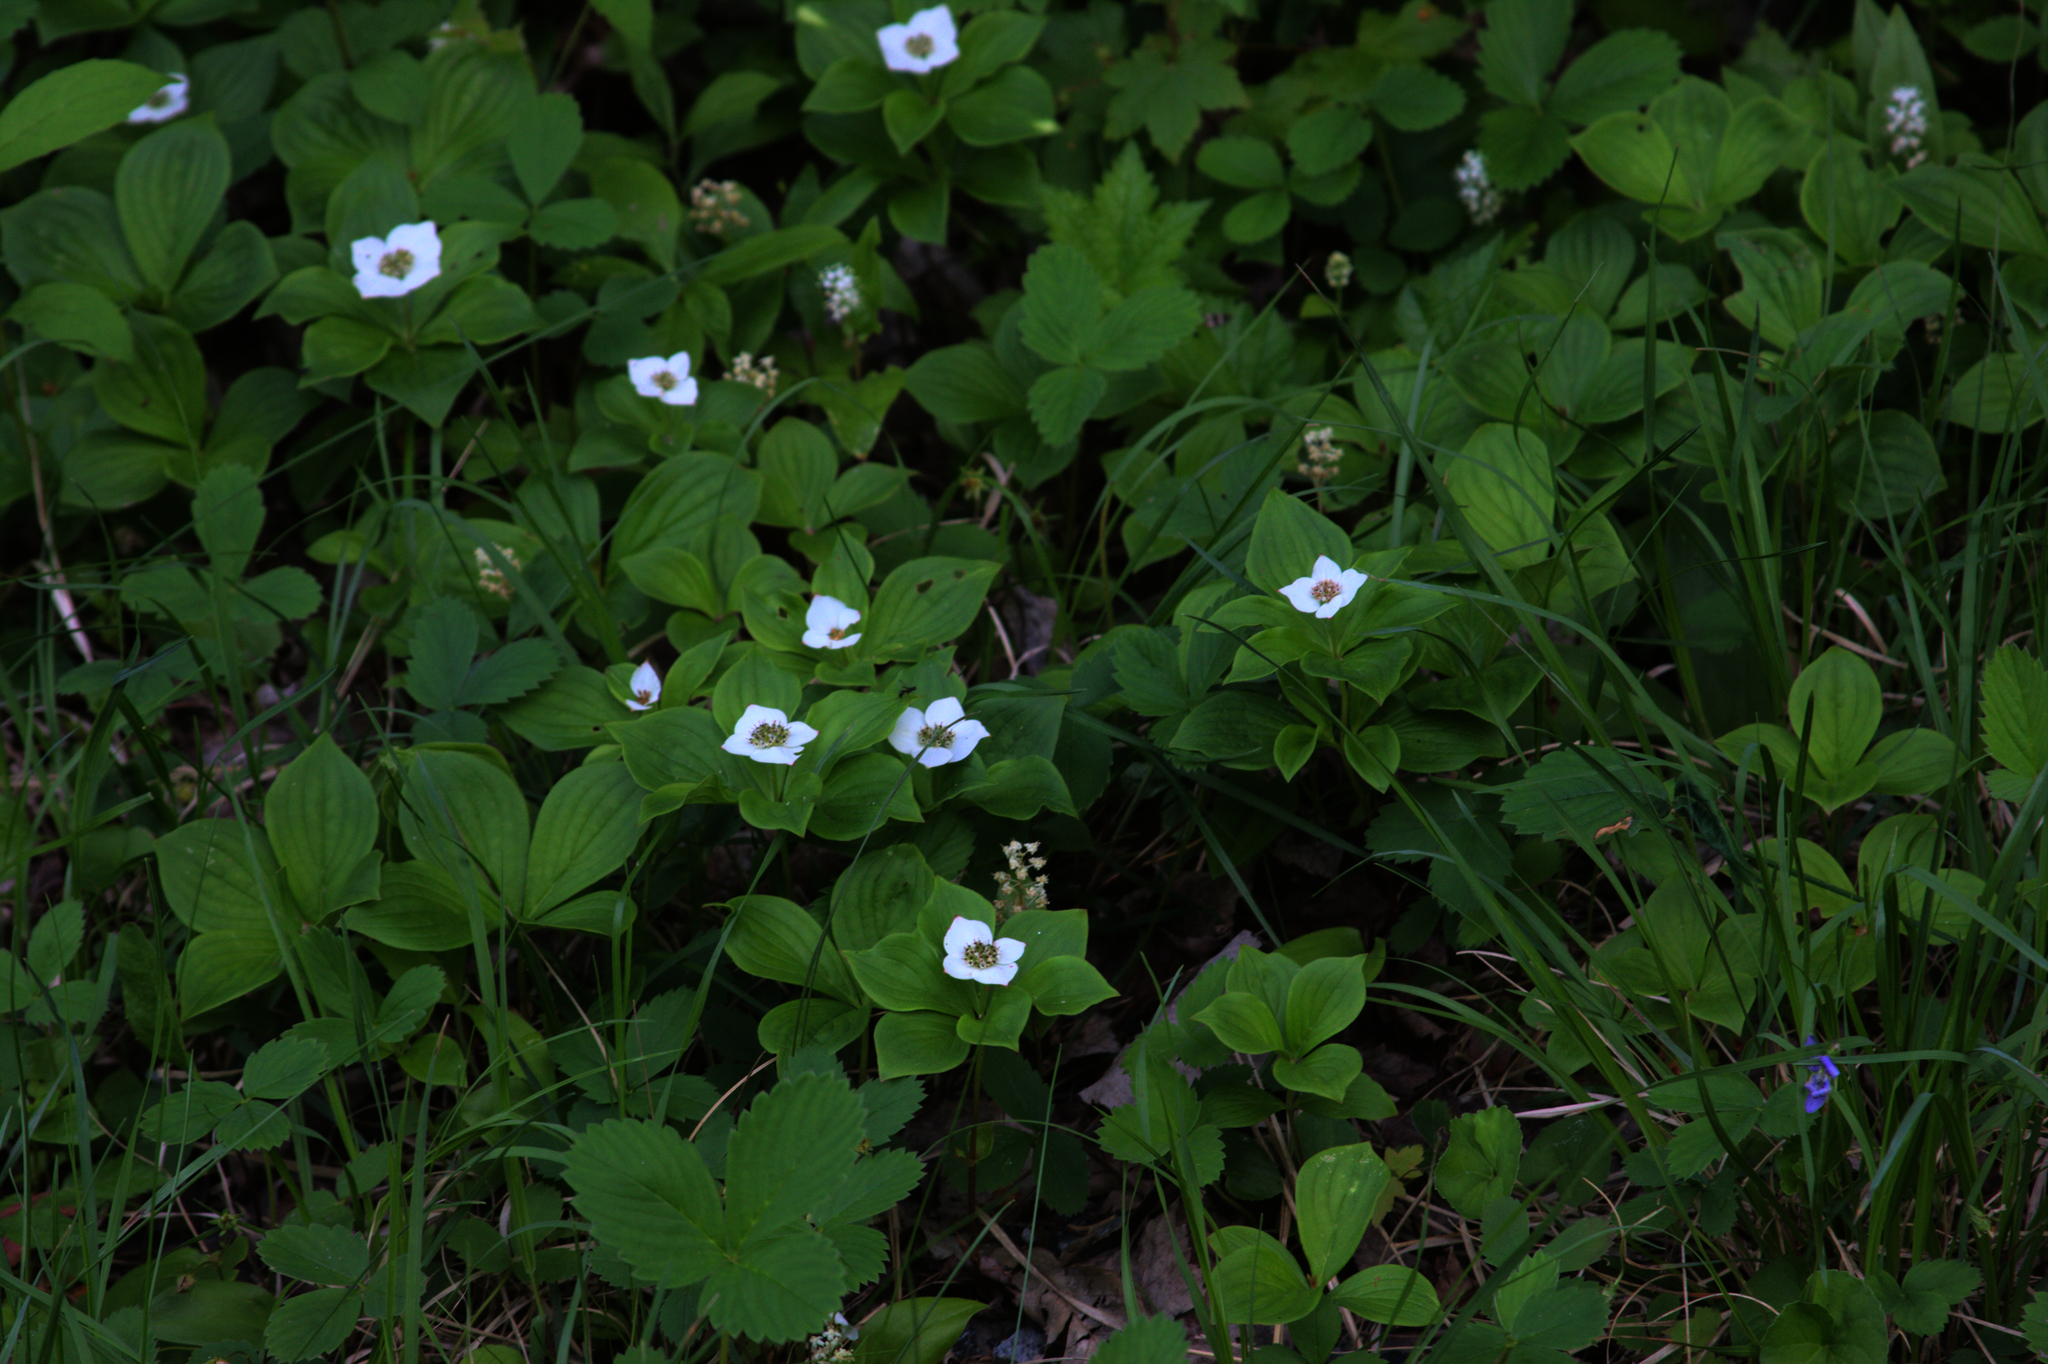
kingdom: Plantae
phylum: Tracheophyta
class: Magnoliopsida
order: Cornales
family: Cornaceae
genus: Cornus
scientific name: Cornus canadensis
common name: Creeping dogwood
